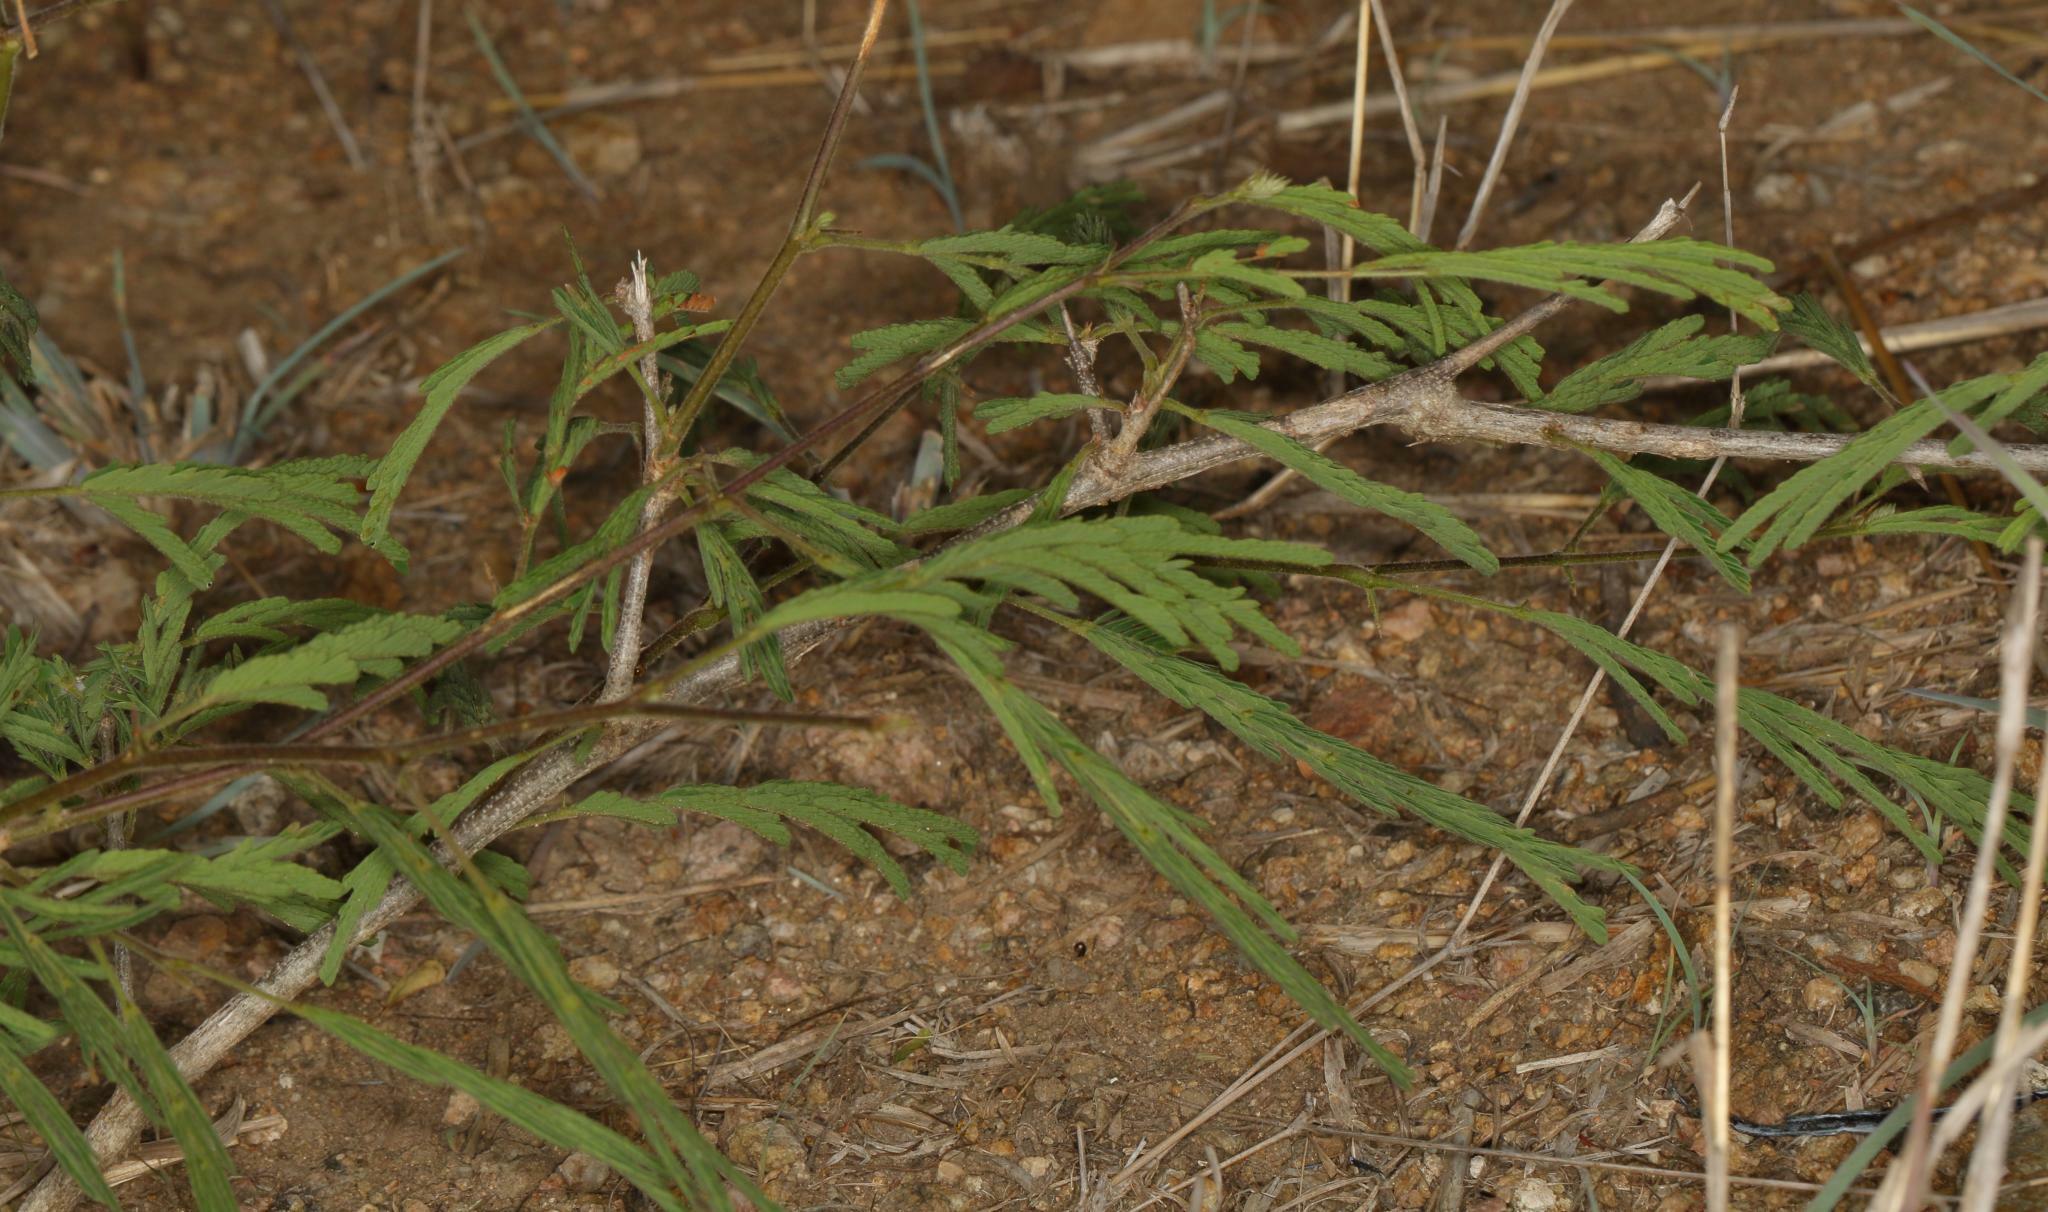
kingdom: Plantae
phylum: Tracheophyta
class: Magnoliopsida
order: Fabales
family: Fabaceae
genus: Dichrostachys
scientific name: Dichrostachys cinerea
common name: Sicklebush
